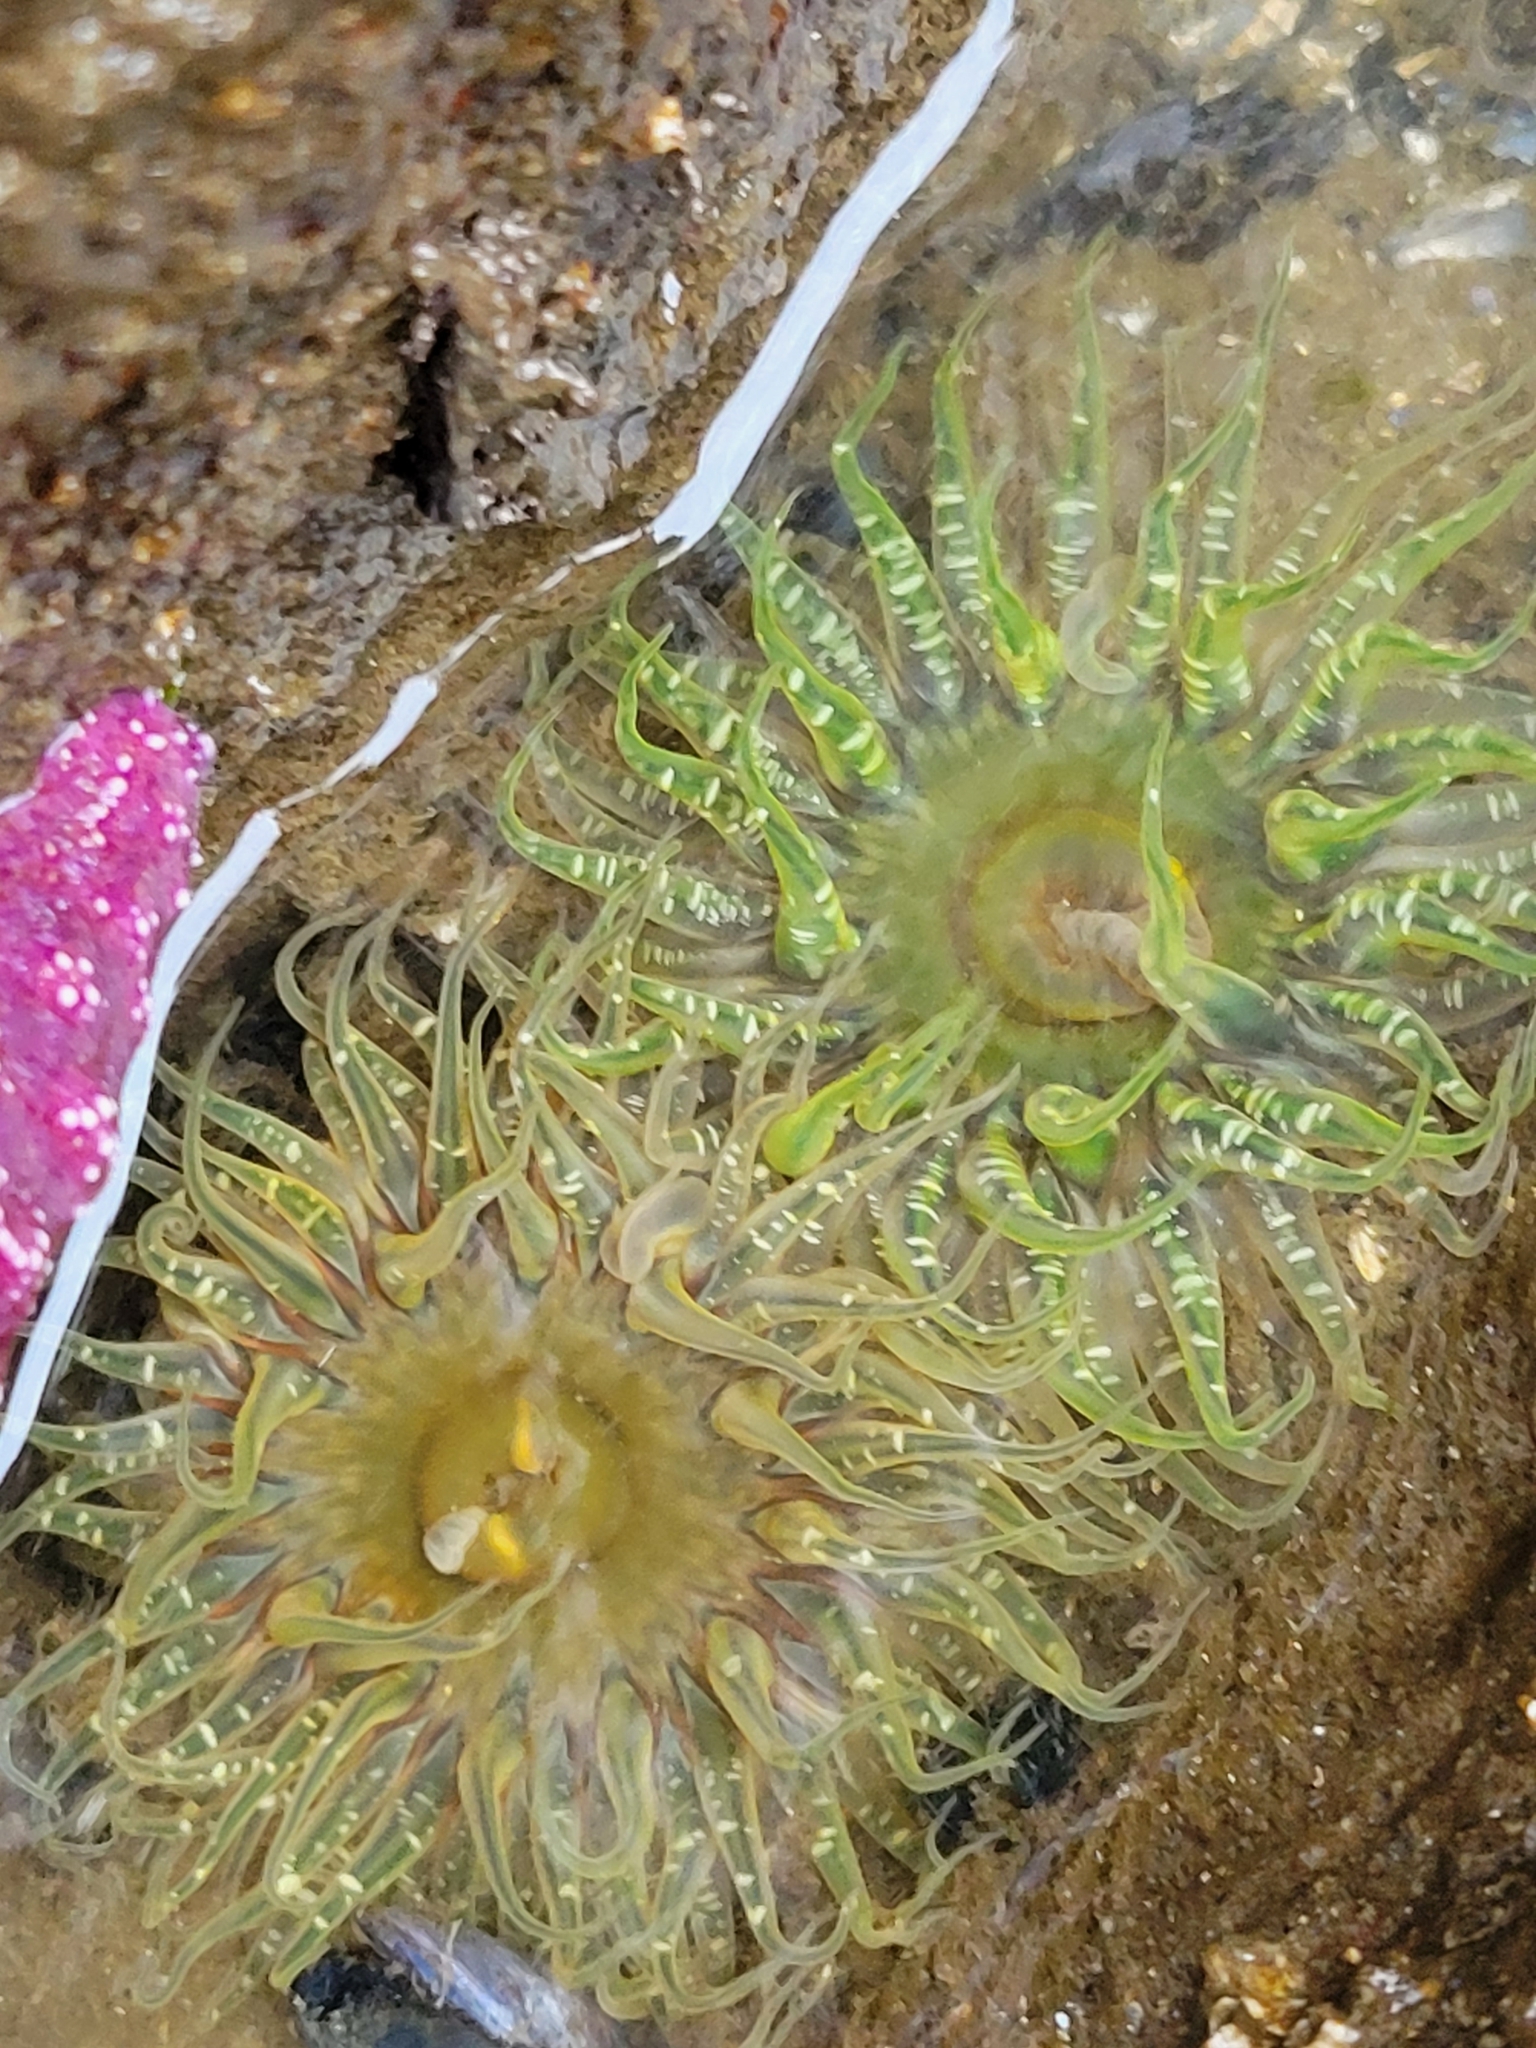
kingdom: Animalia
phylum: Cnidaria
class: Anthozoa
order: Actiniaria
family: Actiniidae
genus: Anthopleura
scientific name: Anthopleura artemisia
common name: Buried sea anemone
